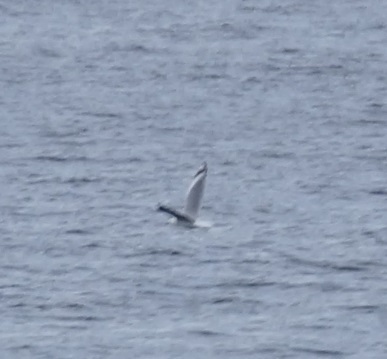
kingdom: Animalia
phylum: Chordata
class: Aves
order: Charadriiformes
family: Laridae
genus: Chroicocephalus
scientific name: Chroicocephalus novaehollandiae
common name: Silver gull
